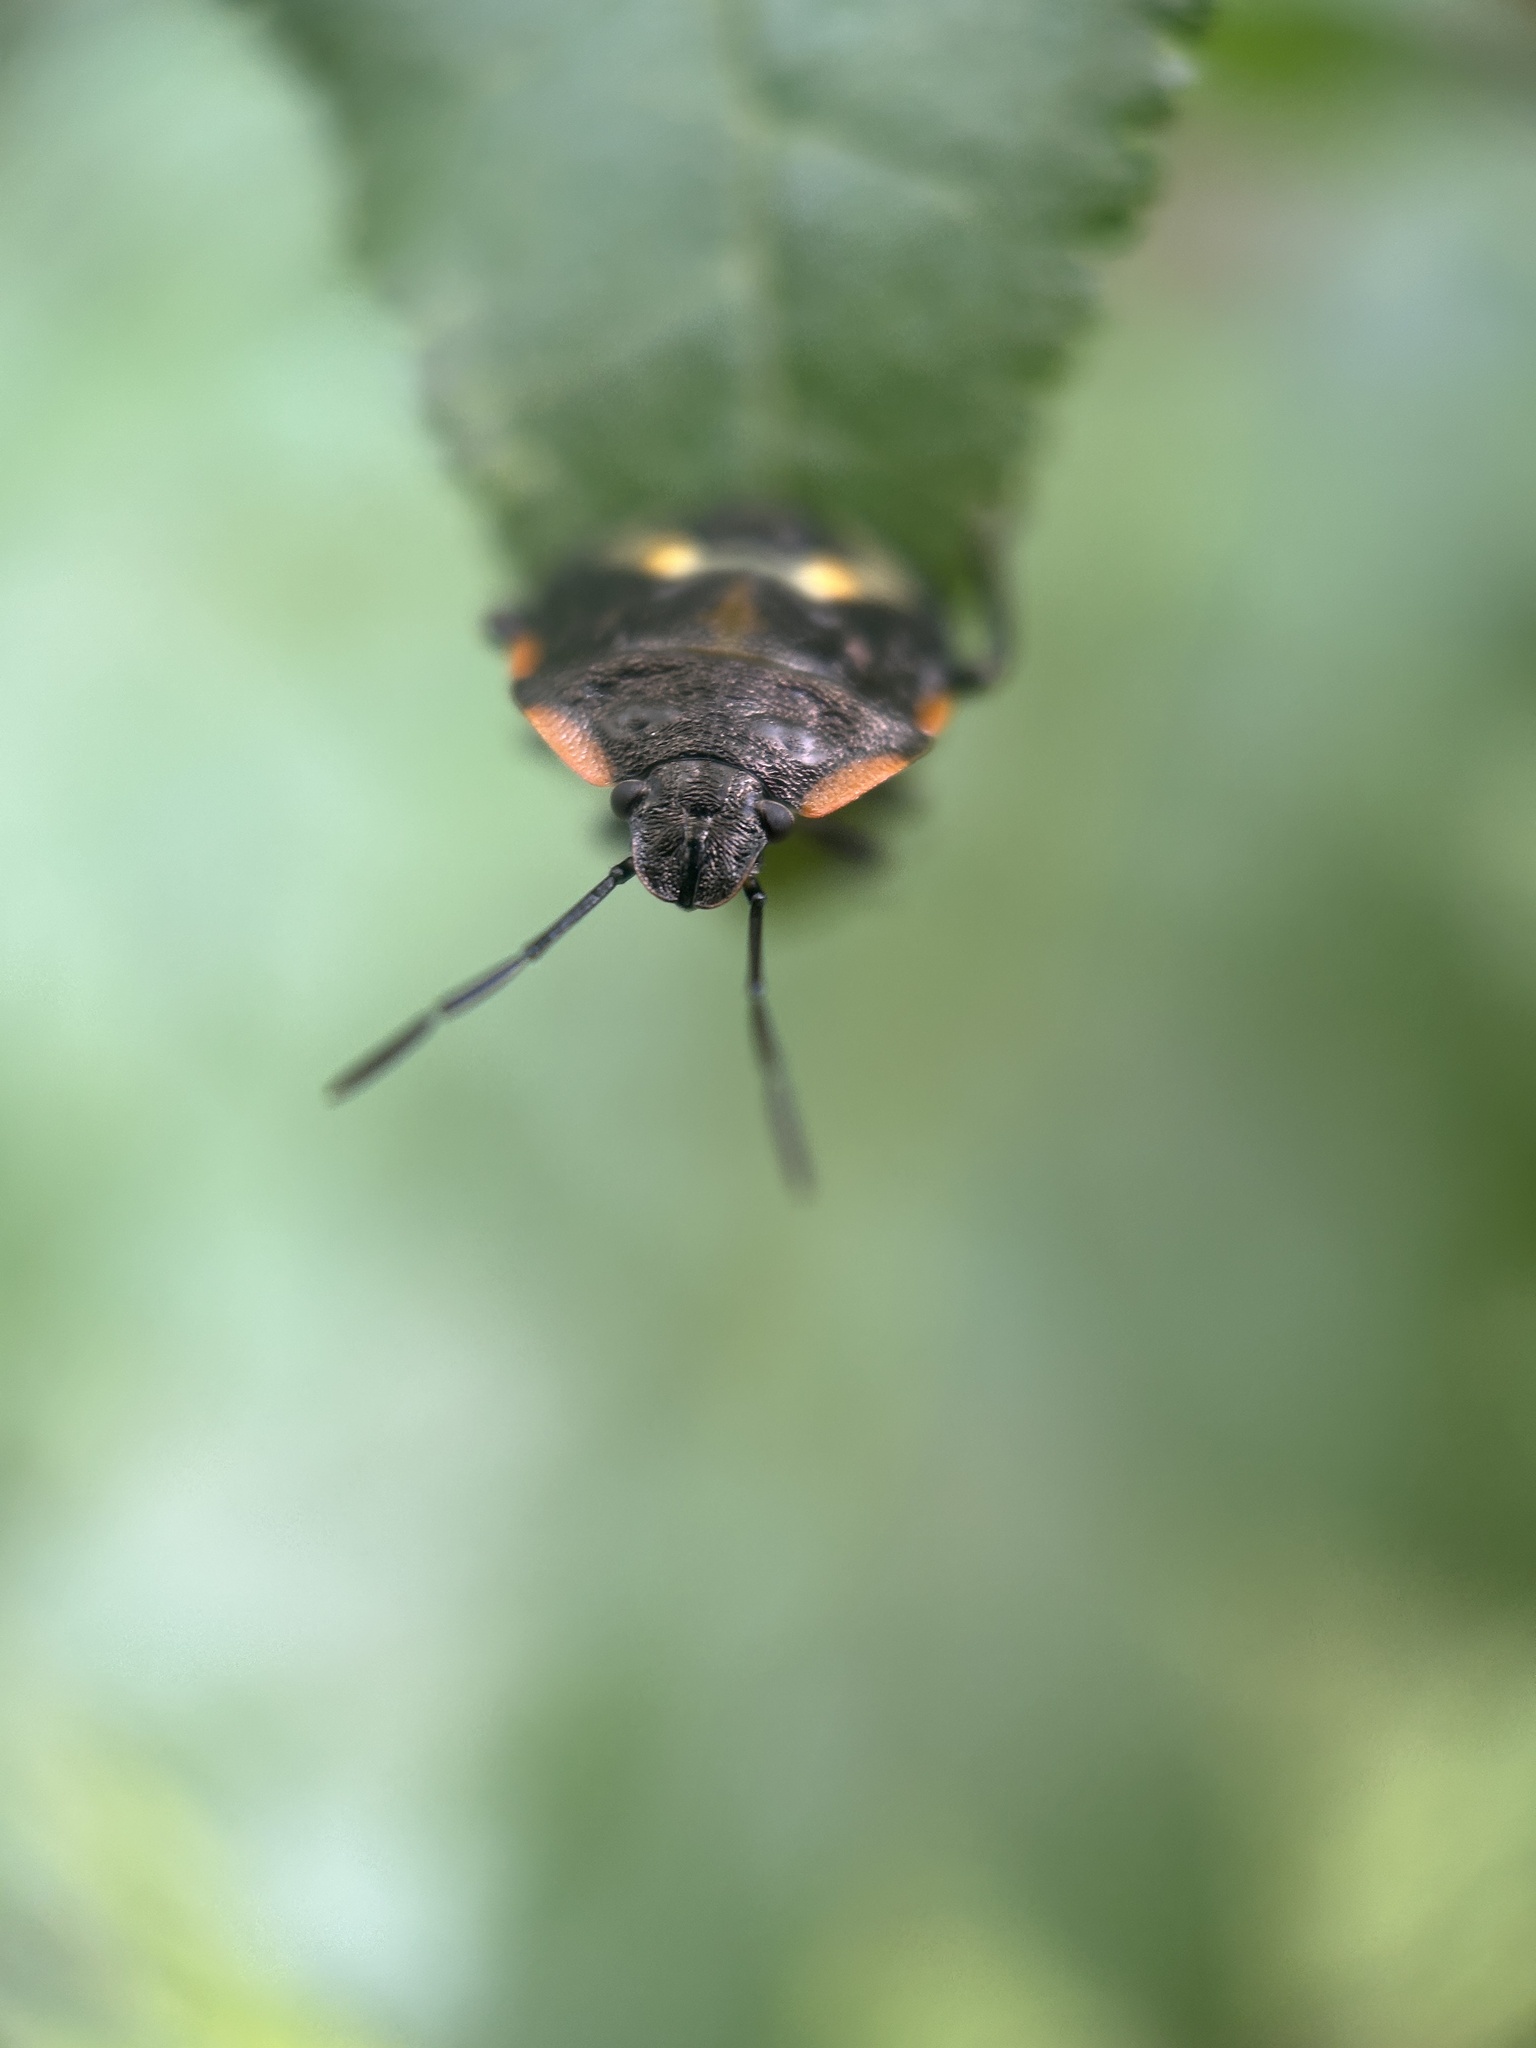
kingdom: Animalia
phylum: Arthropoda
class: Insecta
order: Hemiptera
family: Pentatomidae
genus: Chinavia
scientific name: Chinavia hilaris
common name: Green stink bug
